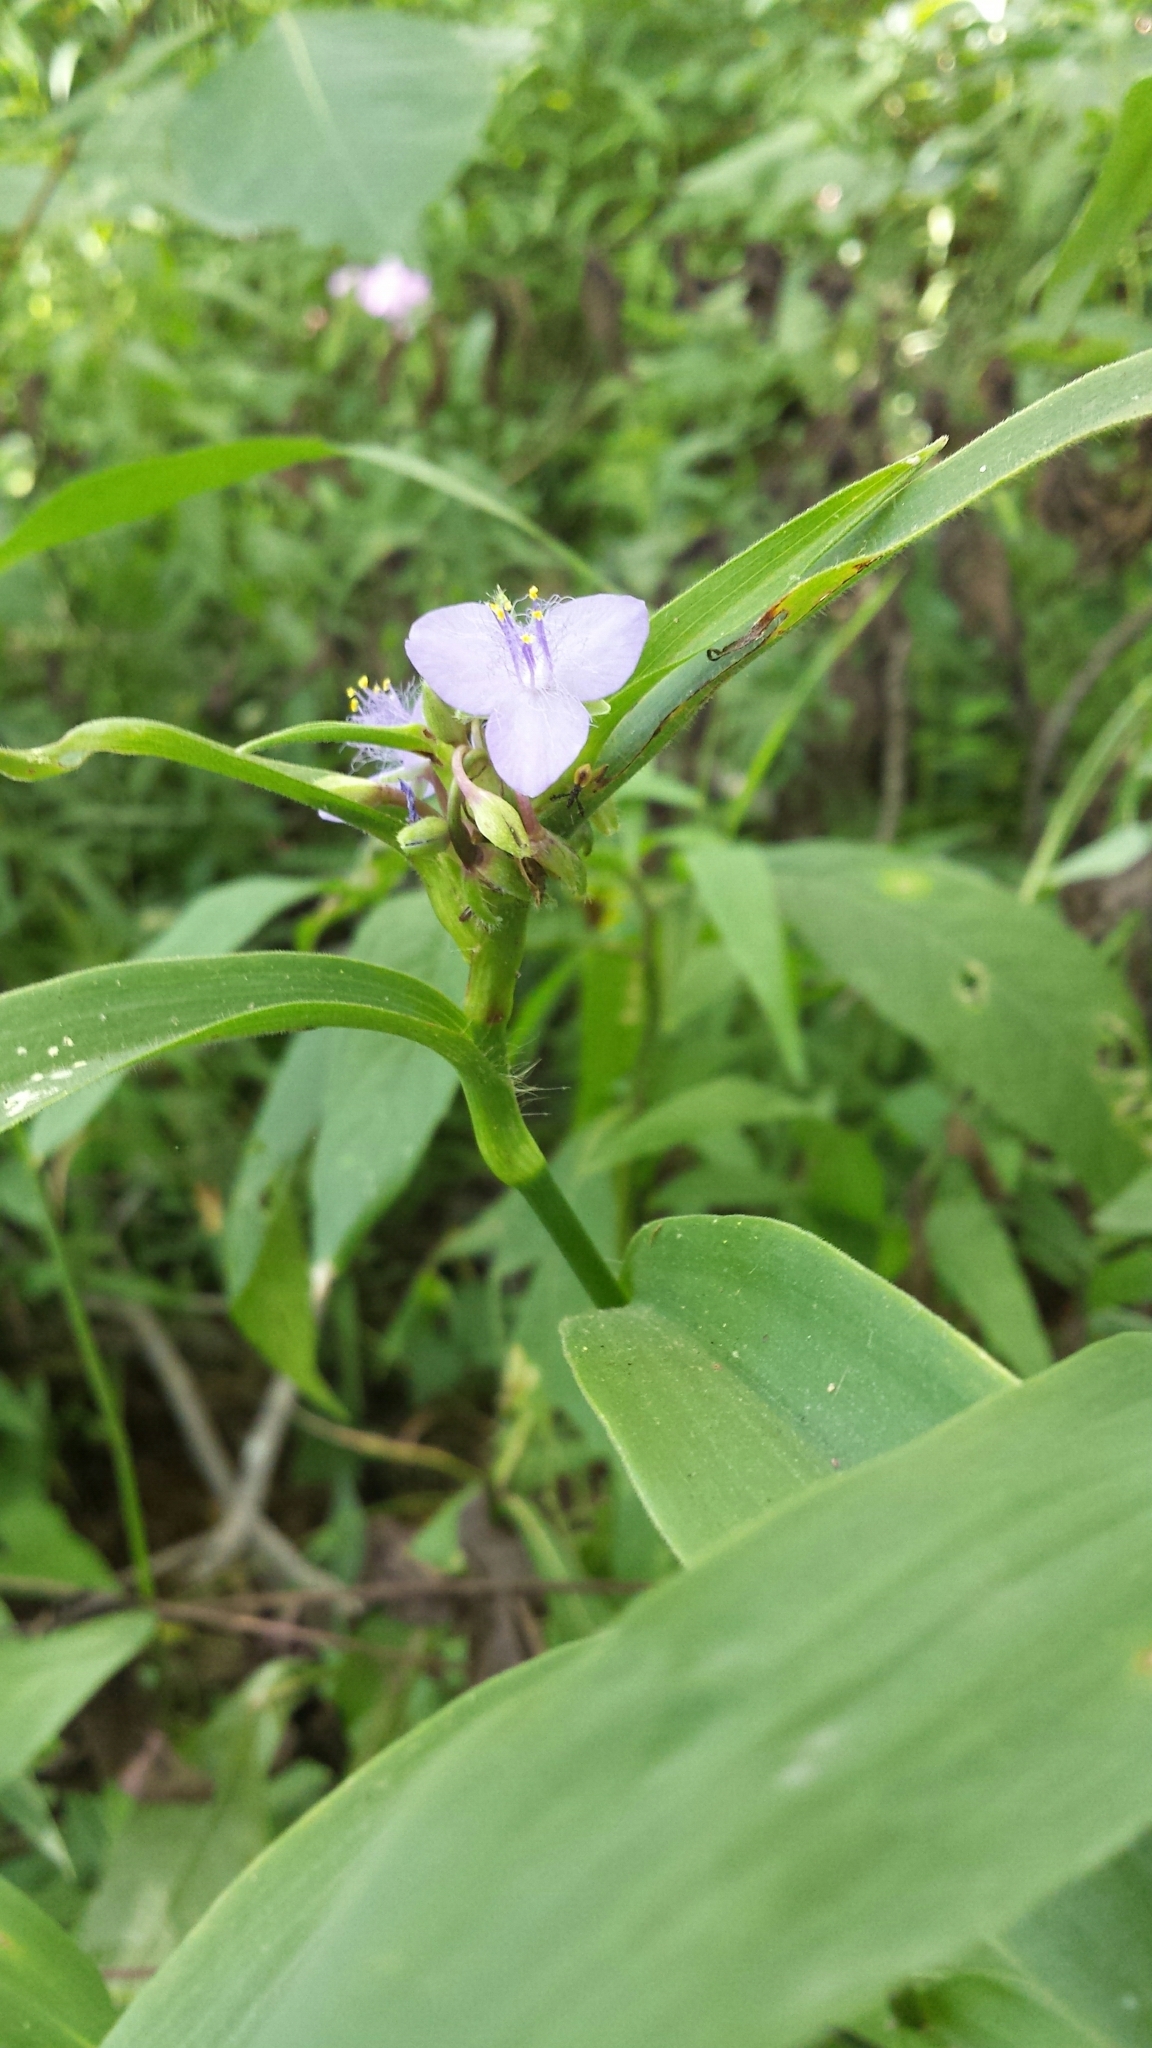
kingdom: Plantae
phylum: Tracheophyta
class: Liliopsida
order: Commelinales
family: Commelinaceae
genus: Tradescantia
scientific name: Tradescantia subaspera
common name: Wide-leaf spiderwort
